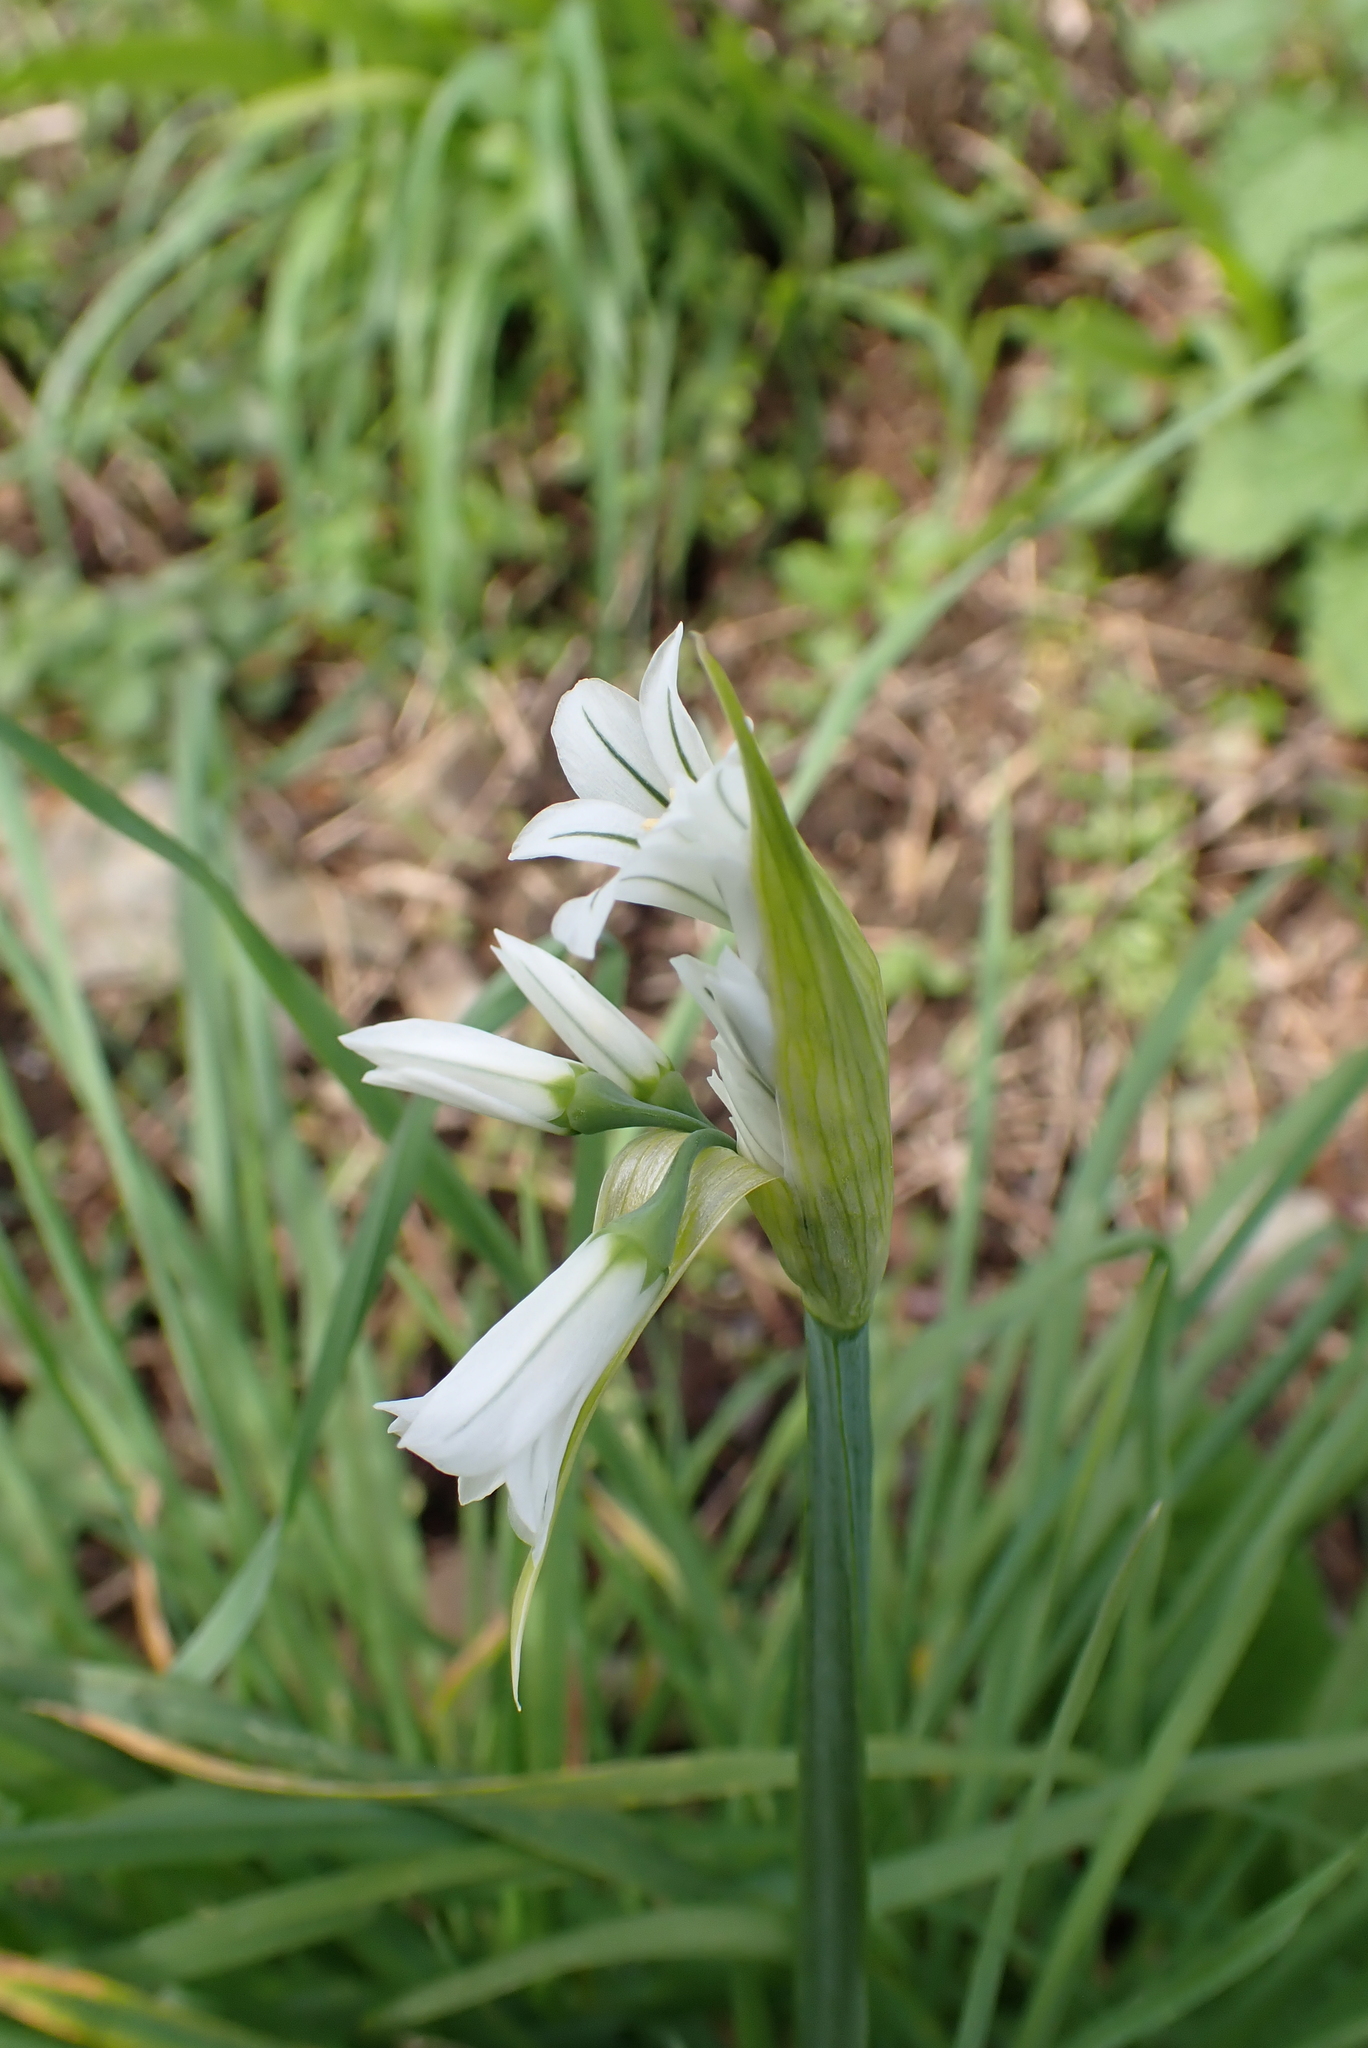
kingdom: Plantae
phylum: Tracheophyta
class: Liliopsida
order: Asparagales
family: Amaryllidaceae
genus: Allium
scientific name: Allium triquetrum
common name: Three-cornered garlic
